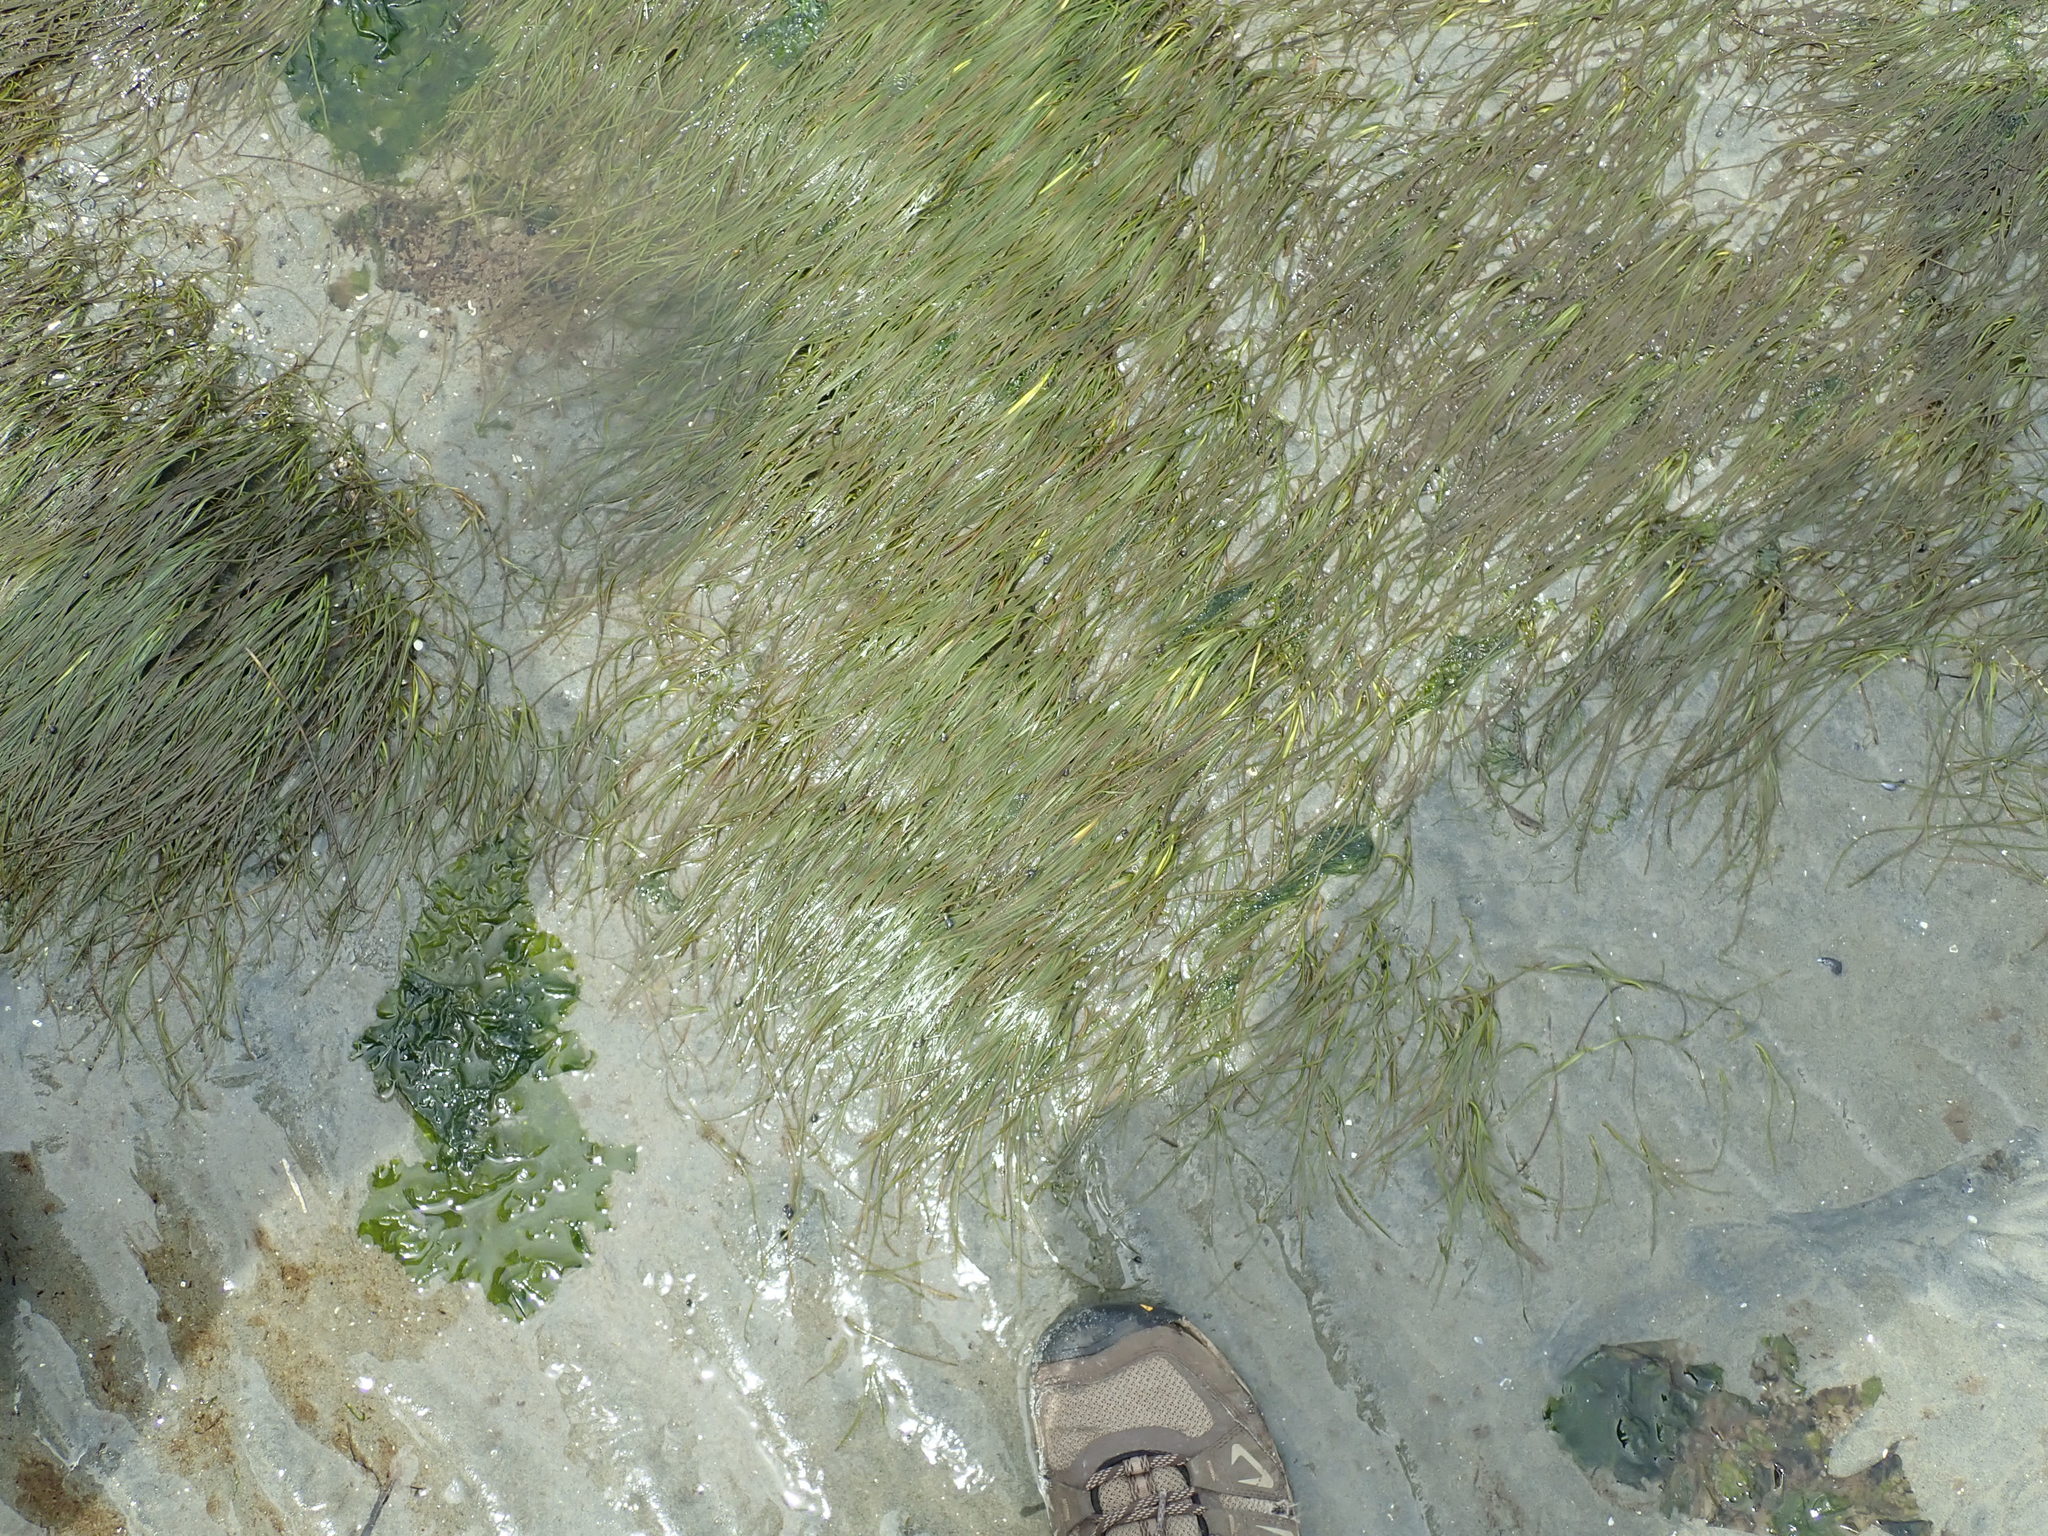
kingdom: Plantae
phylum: Tracheophyta
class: Liliopsida
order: Alismatales
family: Zosteraceae
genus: Zostera
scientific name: Zostera japonica
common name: Dwarf eelgrass
